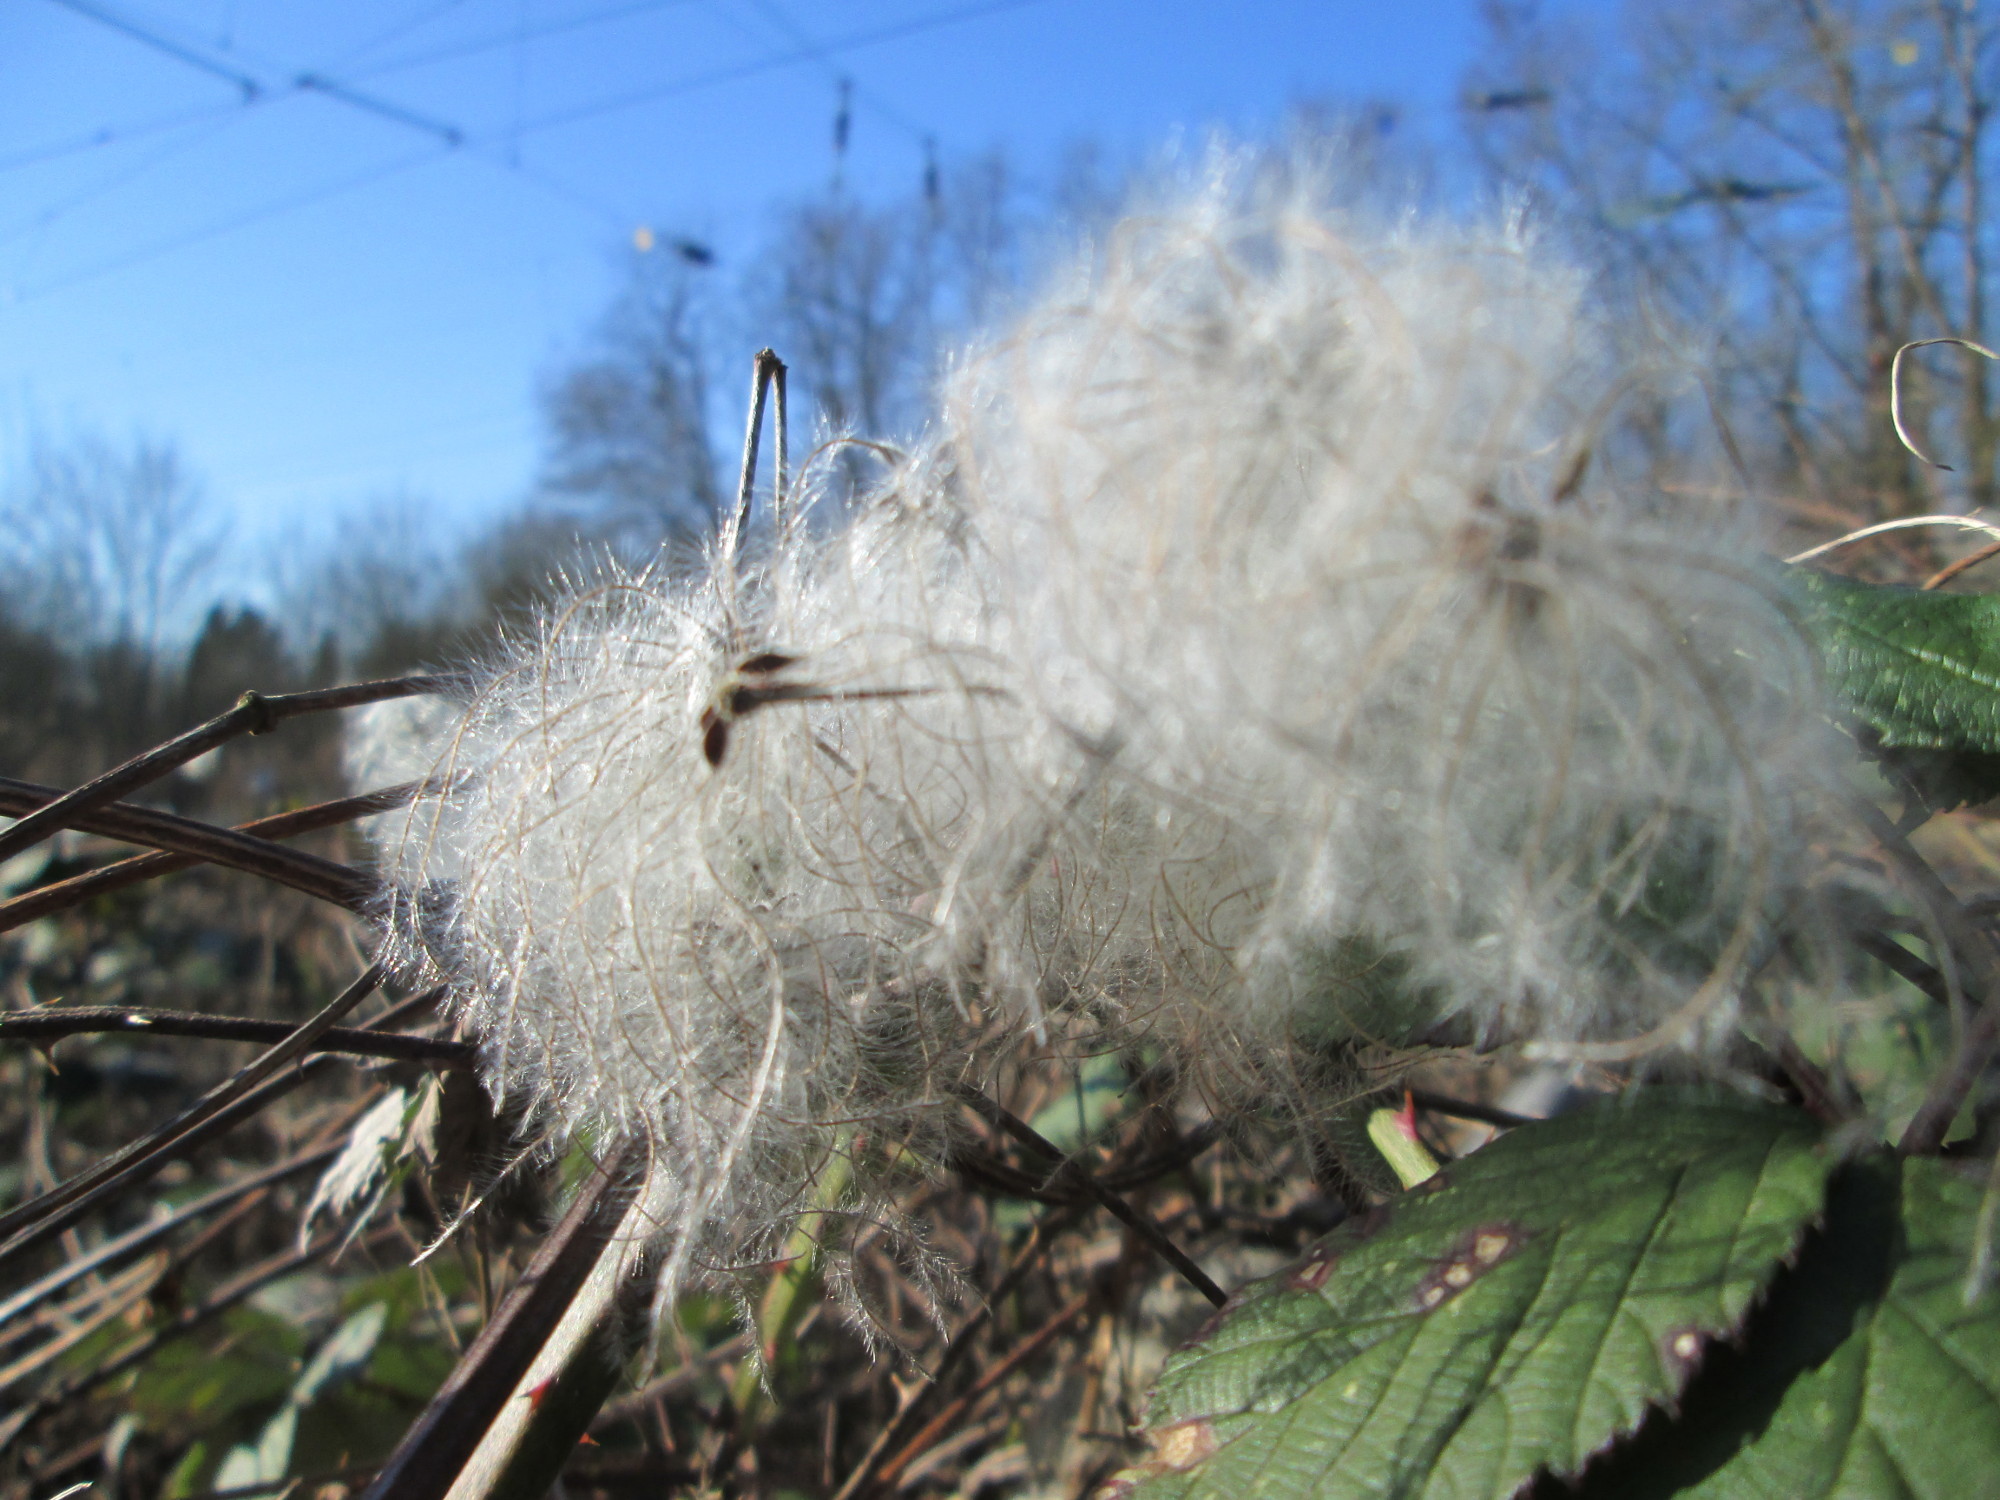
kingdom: Plantae
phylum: Tracheophyta
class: Magnoliopsida
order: Ranunculales
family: Ranunculaceae
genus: Clematis
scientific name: Clematis vitalba
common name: Evergreen clematis
